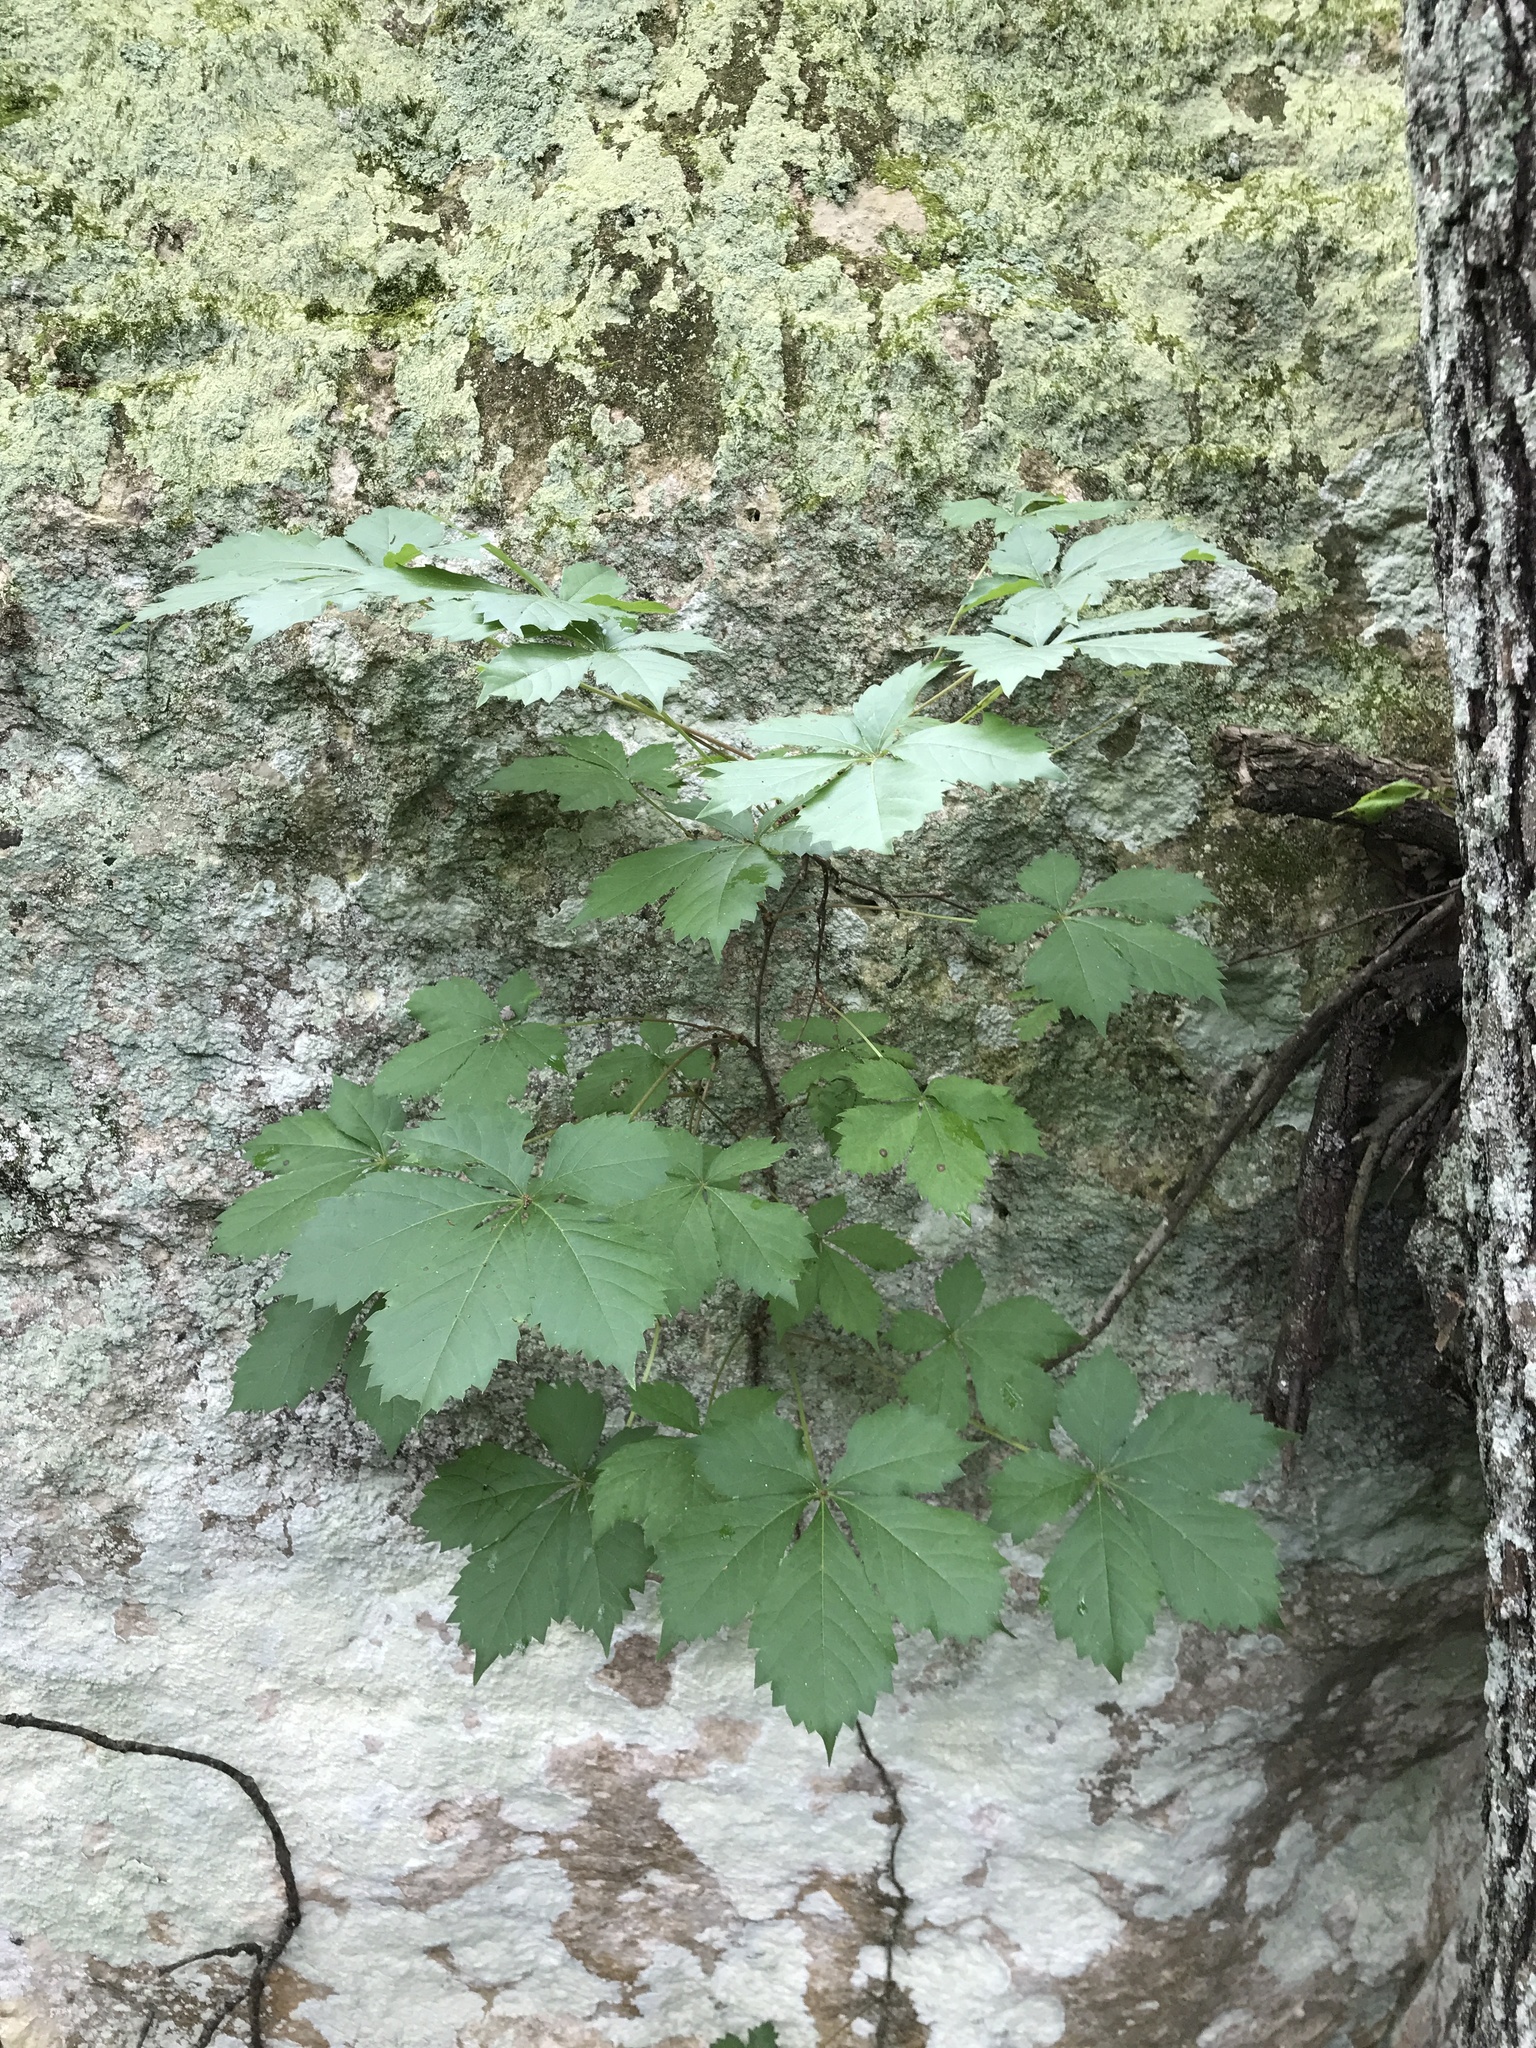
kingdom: Plantae
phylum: Tracheophyta
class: Magnoliopsida
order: Vitales
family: Vitaceae
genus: Parthenocissus
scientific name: Parthenocissus quinquefolia
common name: Virginia-creeper
